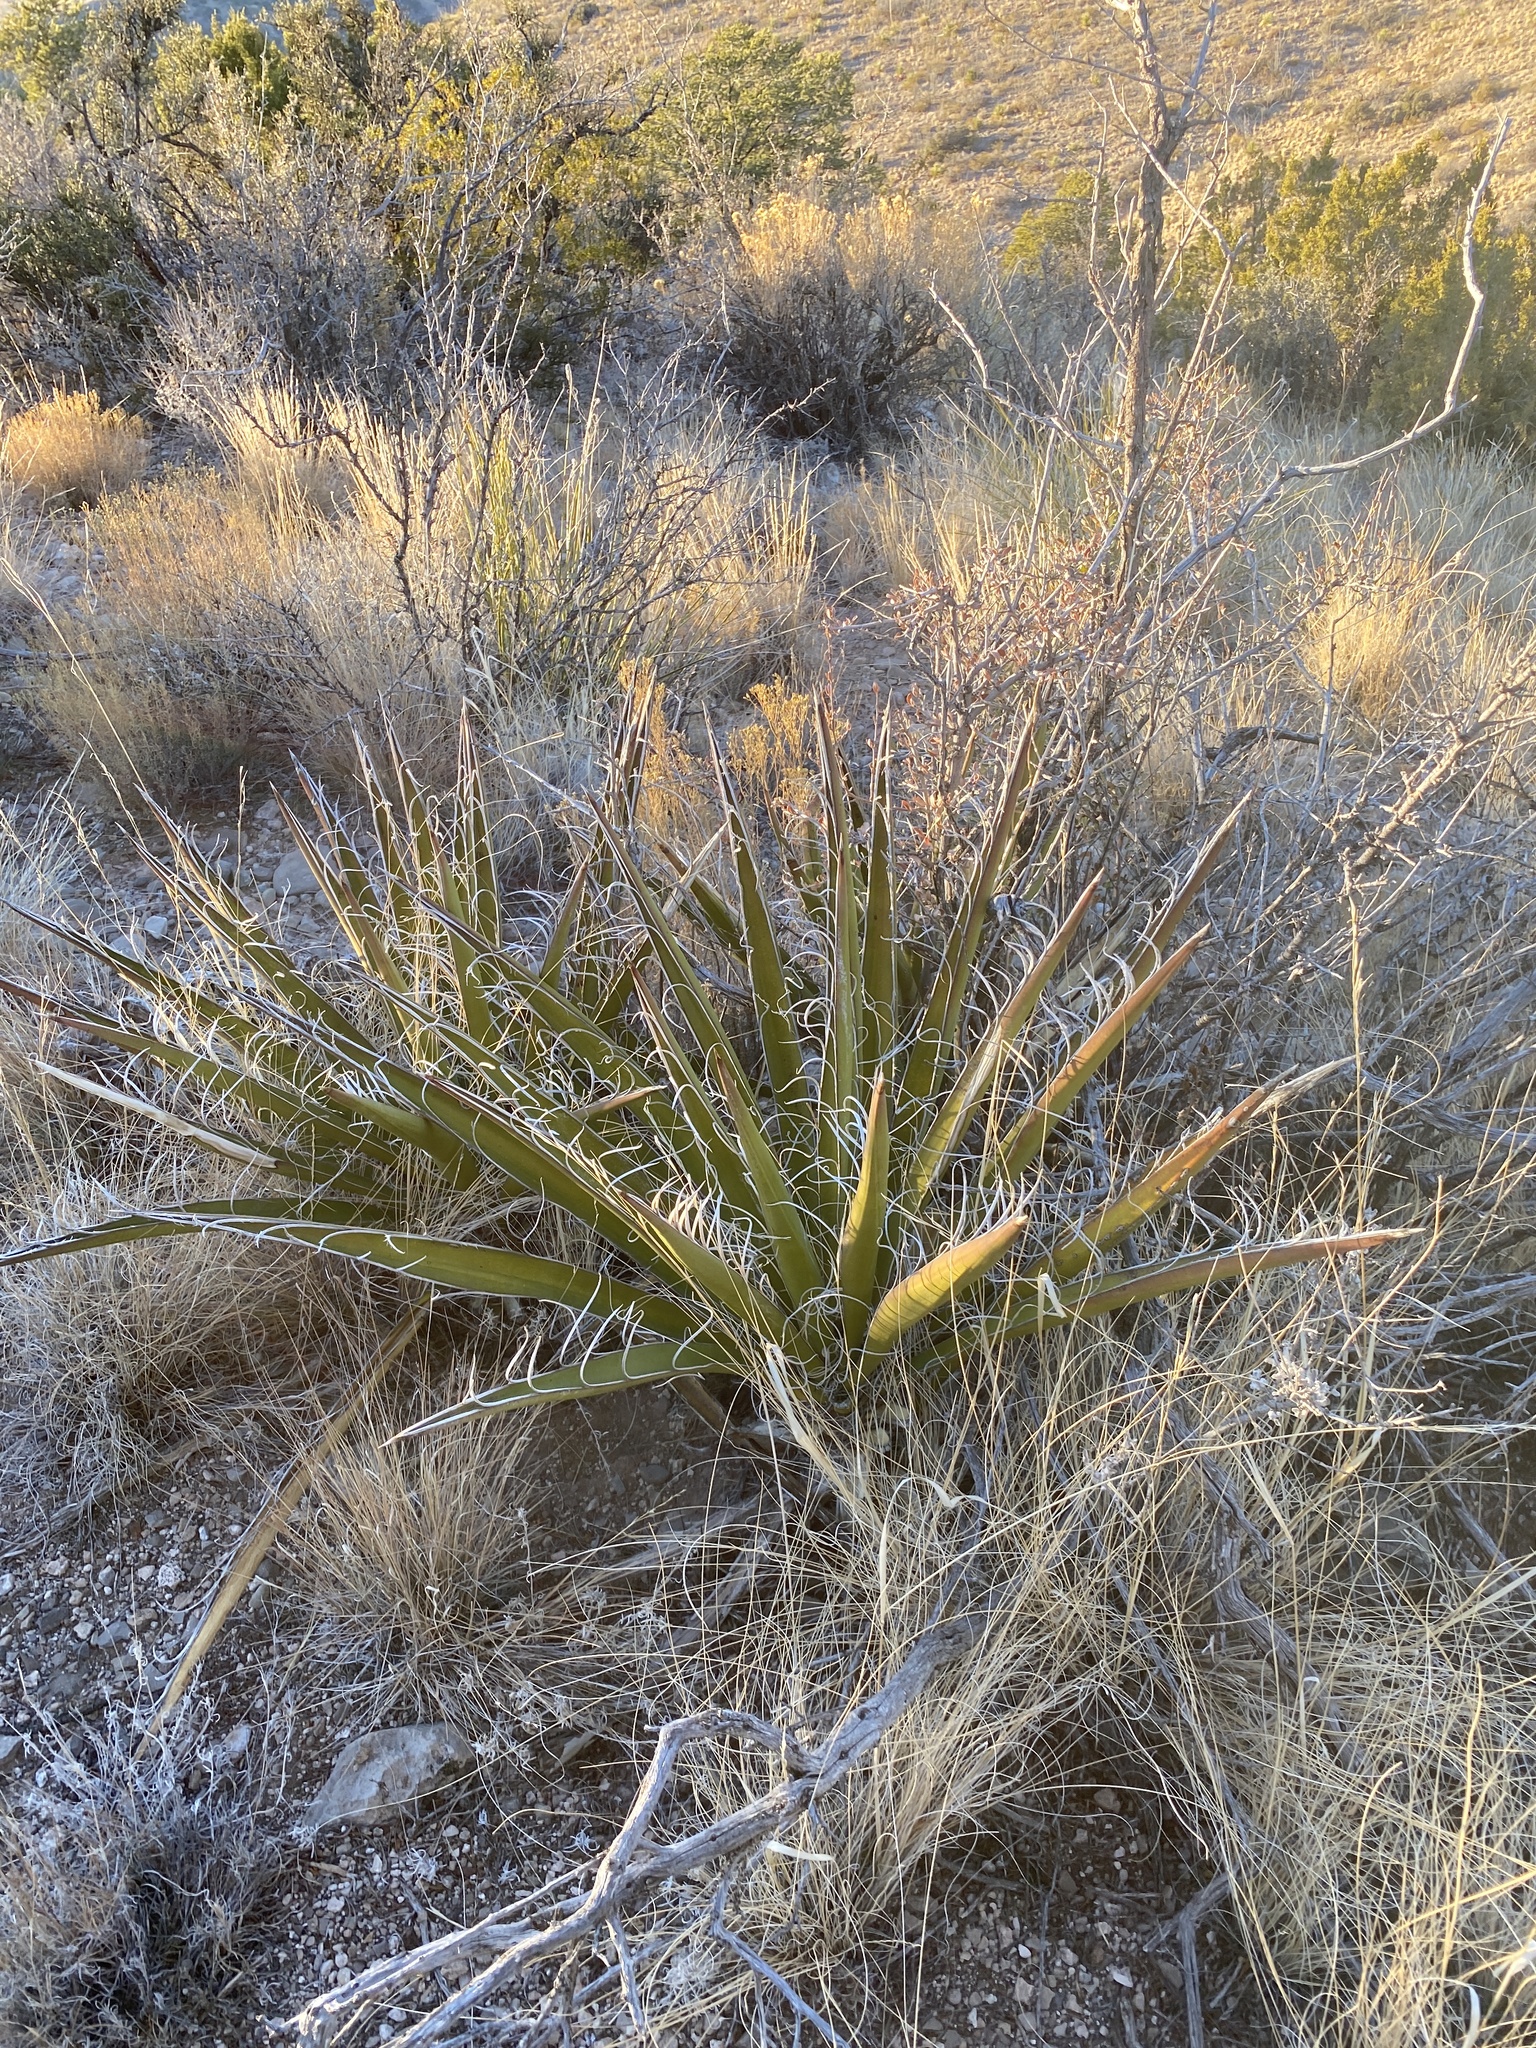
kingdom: Plantae
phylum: Tracheophyta
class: Liliopsida
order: Asparagales
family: Asparagaceae
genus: Yucca
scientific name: Yucca baccata
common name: Banana yucca
